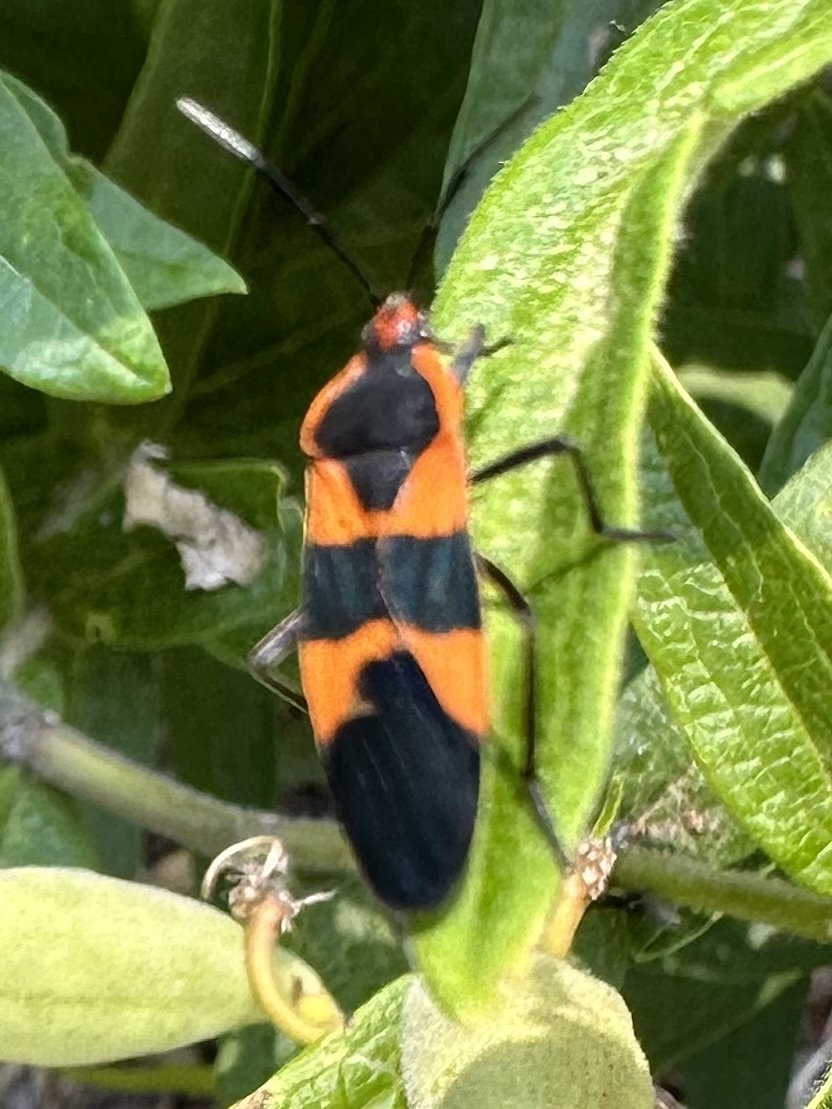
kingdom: Animalia
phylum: Arthropoda
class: Insecta
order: Hemiptera
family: Lygaeidae
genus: Oncopeltus
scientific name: Oncopeltus fasciatus
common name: Large milkweed bug
